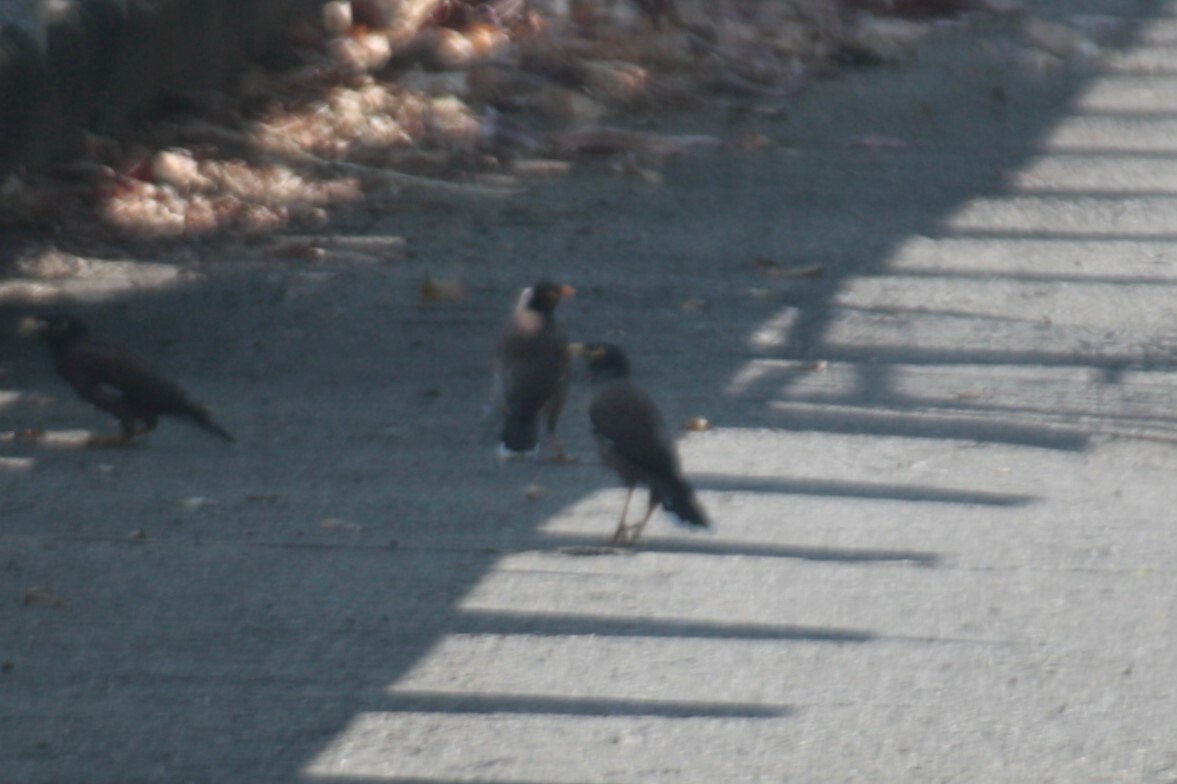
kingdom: Animalia
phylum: Chordata
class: Aves
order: Passeriformes
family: Sturnidae
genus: Acridotheres
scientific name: Acridotheres tristis
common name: Common myna
